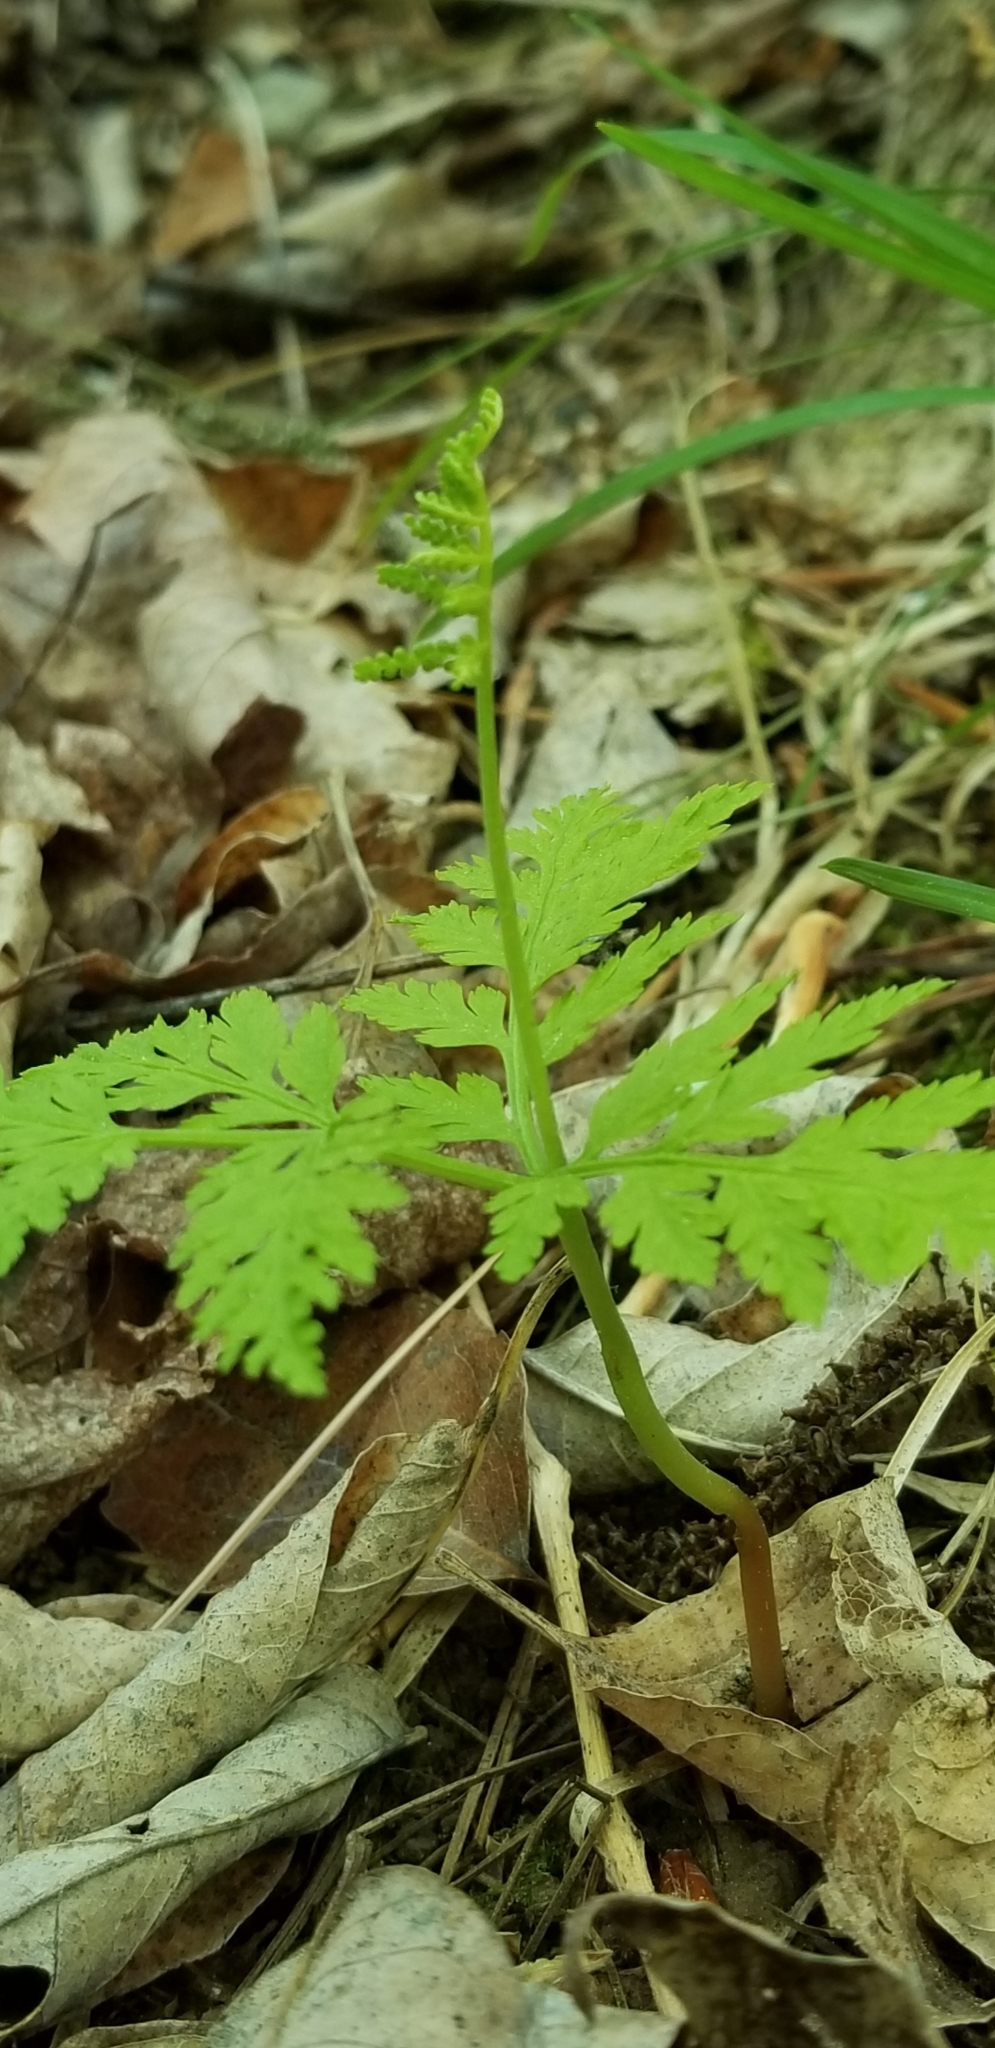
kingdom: Plantae
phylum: Tracheophyta
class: Polypodiopsida
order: Ophioglossales
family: Ophioglossaceae
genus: Botrypus
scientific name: Botrypus virginianus
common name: Common grapefern
